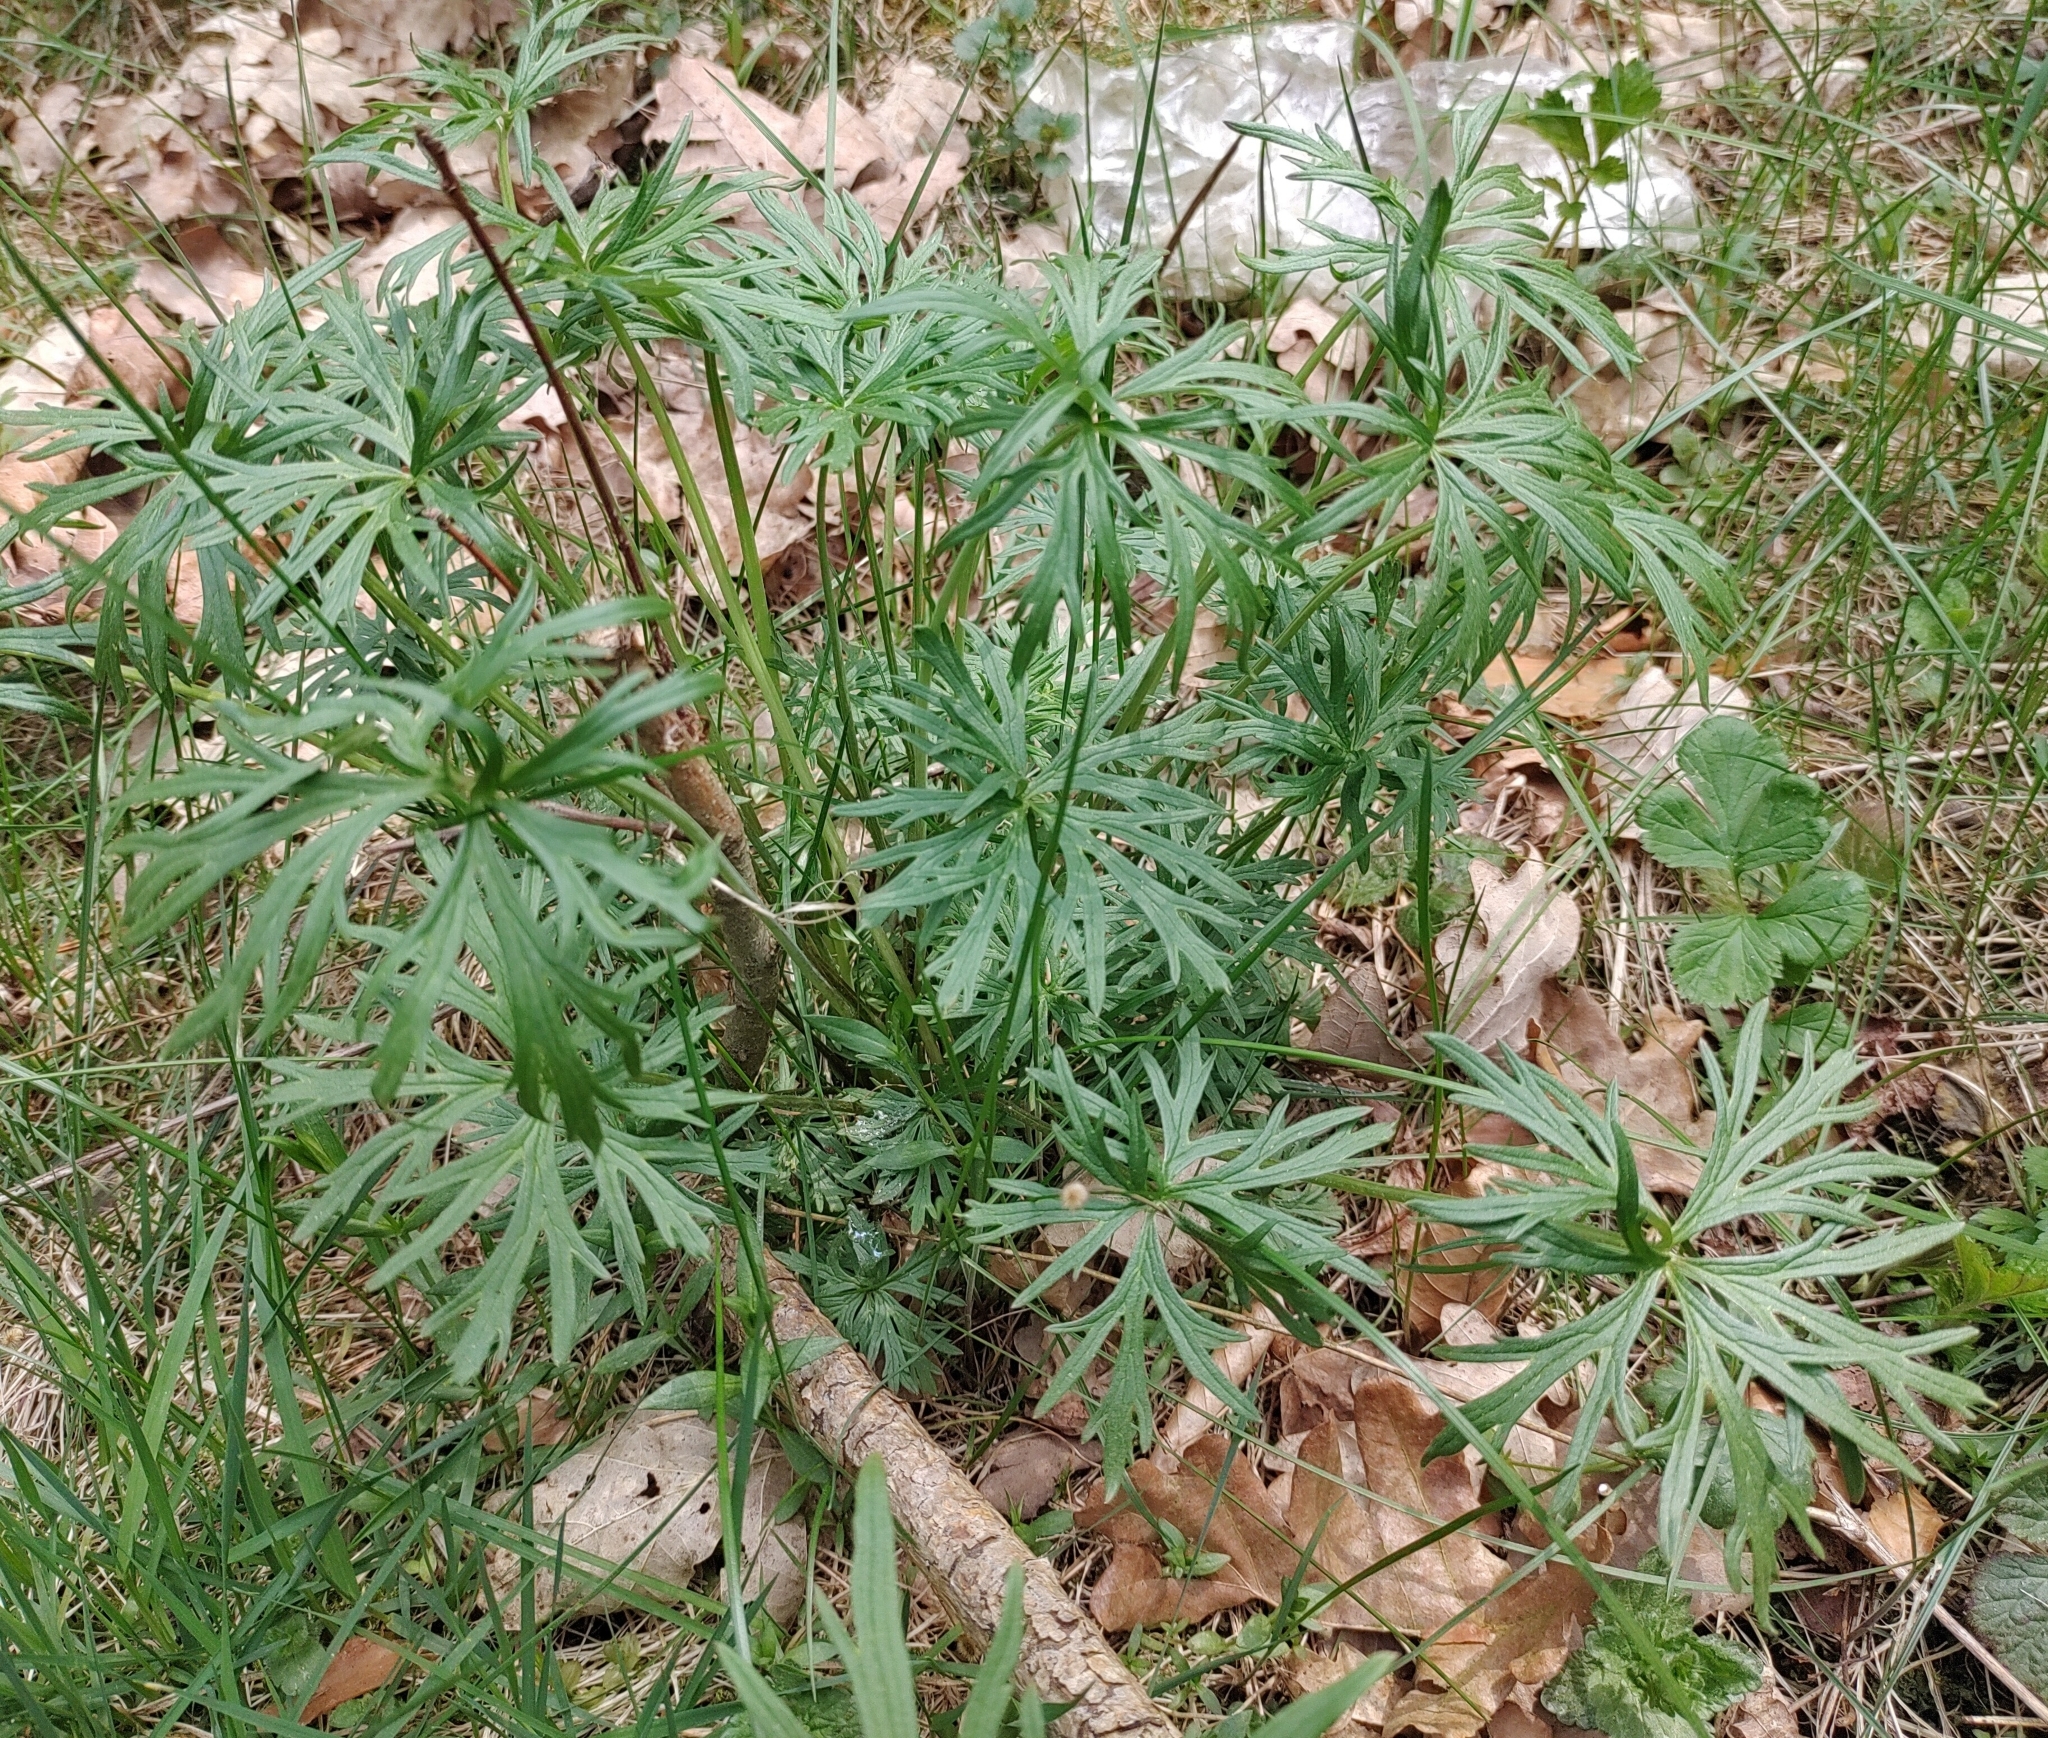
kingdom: Plantae
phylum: Tracheophyta
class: Magnoliopsida
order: Ranunculales
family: Ranunculaceae
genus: Ranunculus
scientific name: Ranunculus acris
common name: Meadow buttercup
